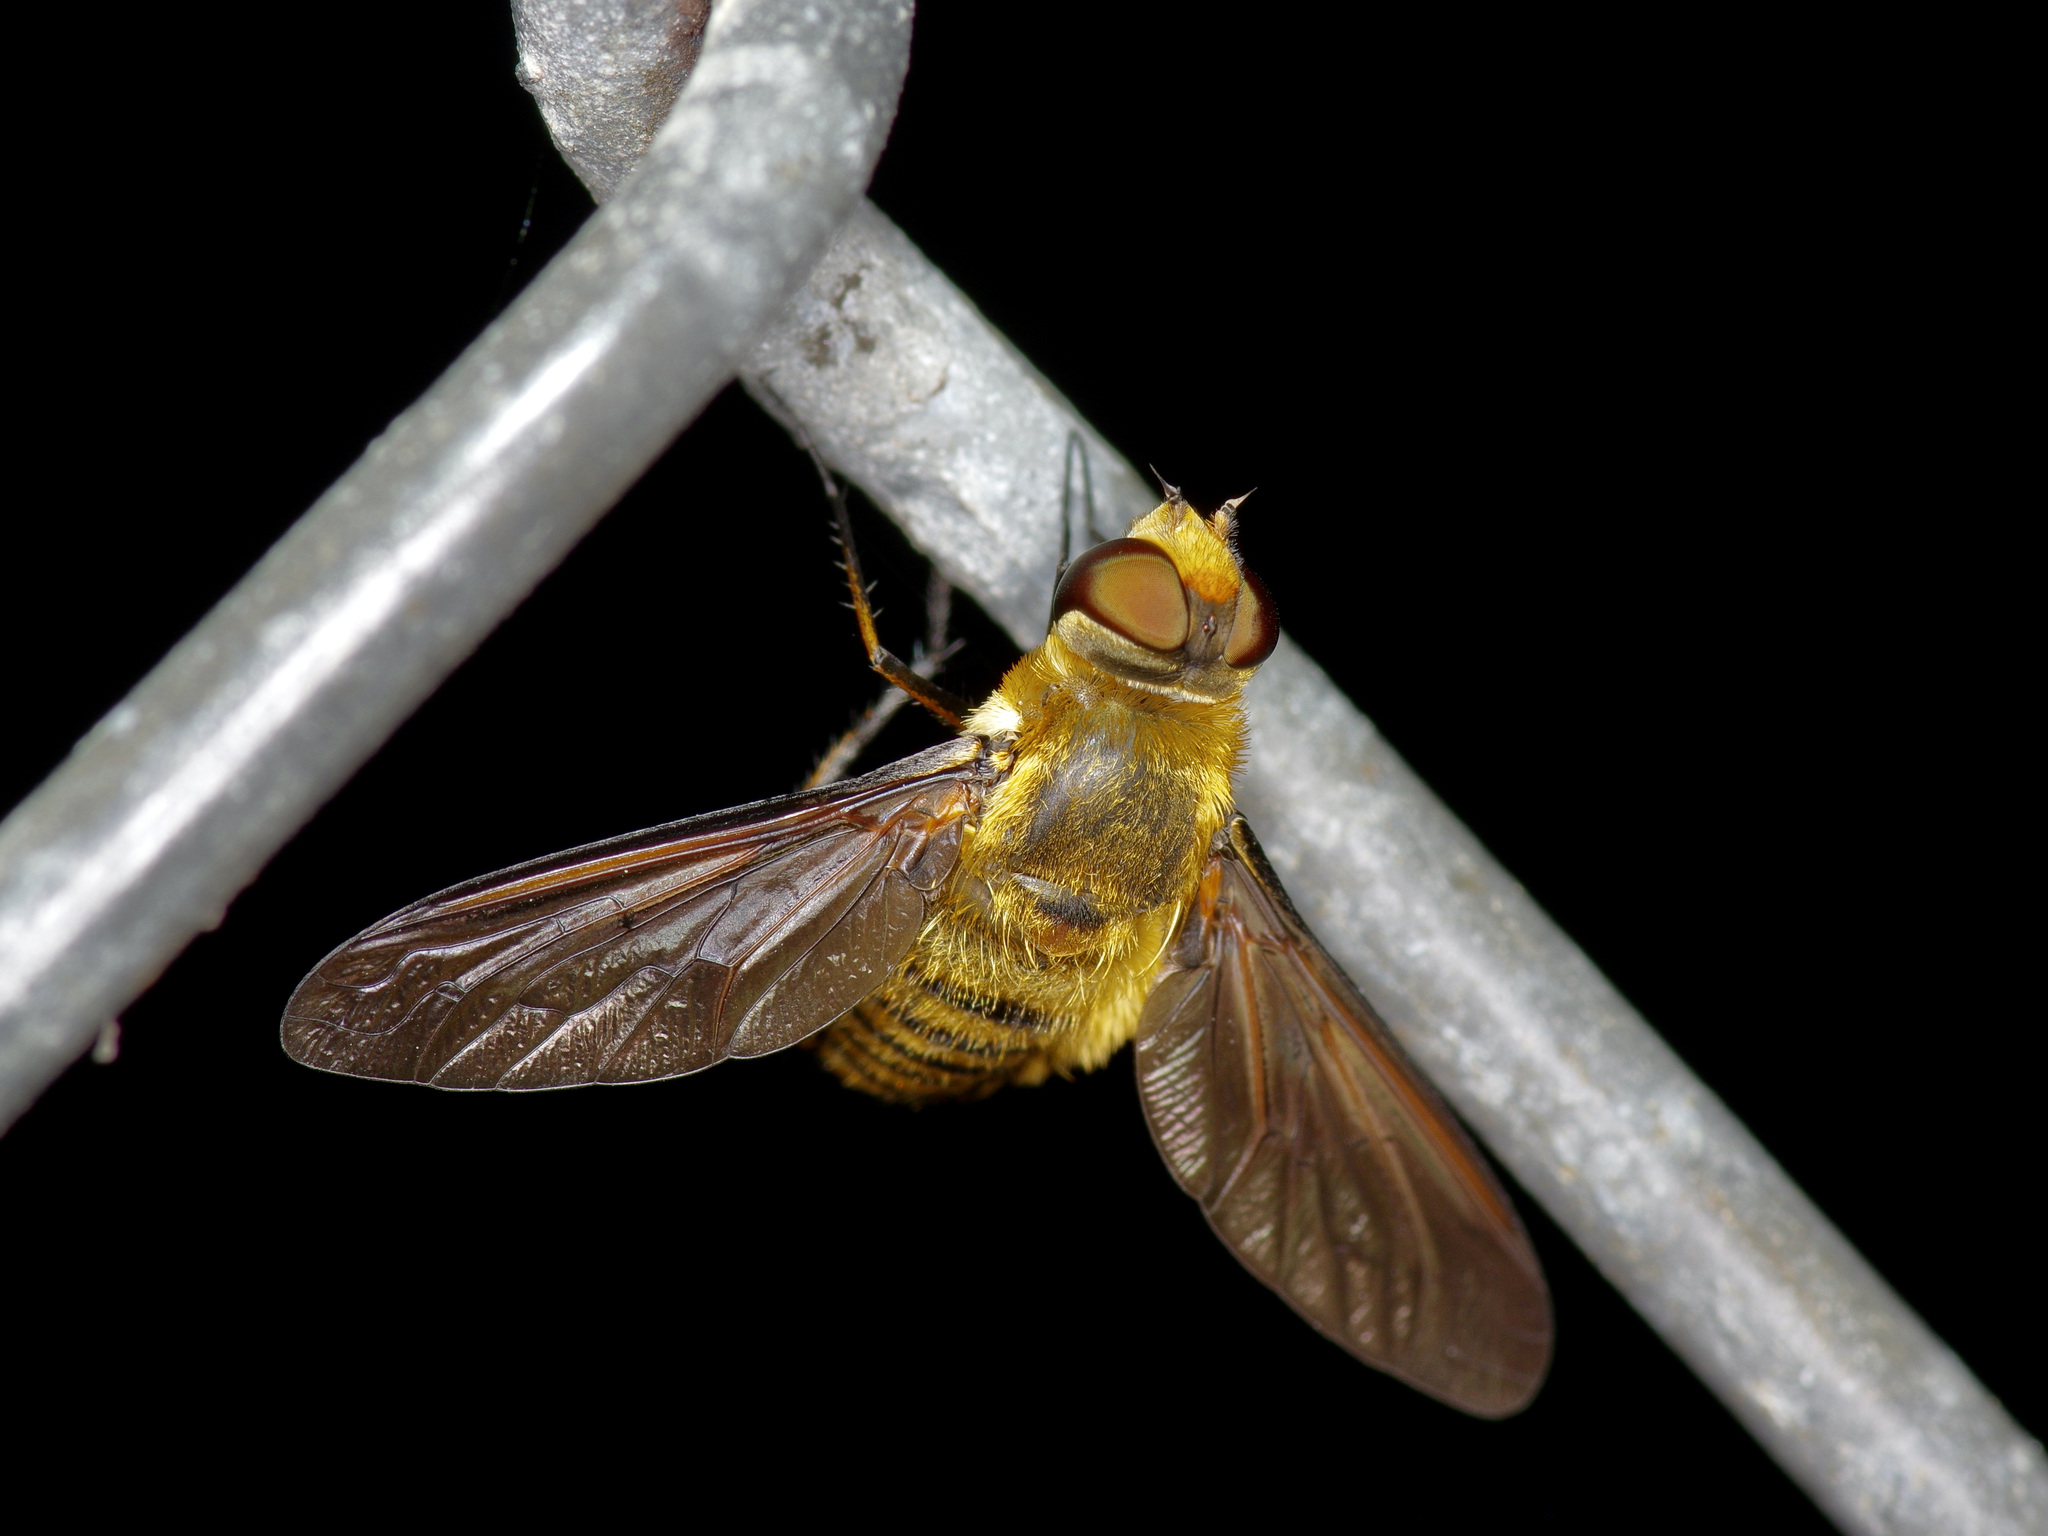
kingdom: Animalia
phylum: Arthropoda
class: Insecta
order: Diptera
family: Bombyliidae
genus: Poecilanthrax
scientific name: Poecilanthrax lucifer
